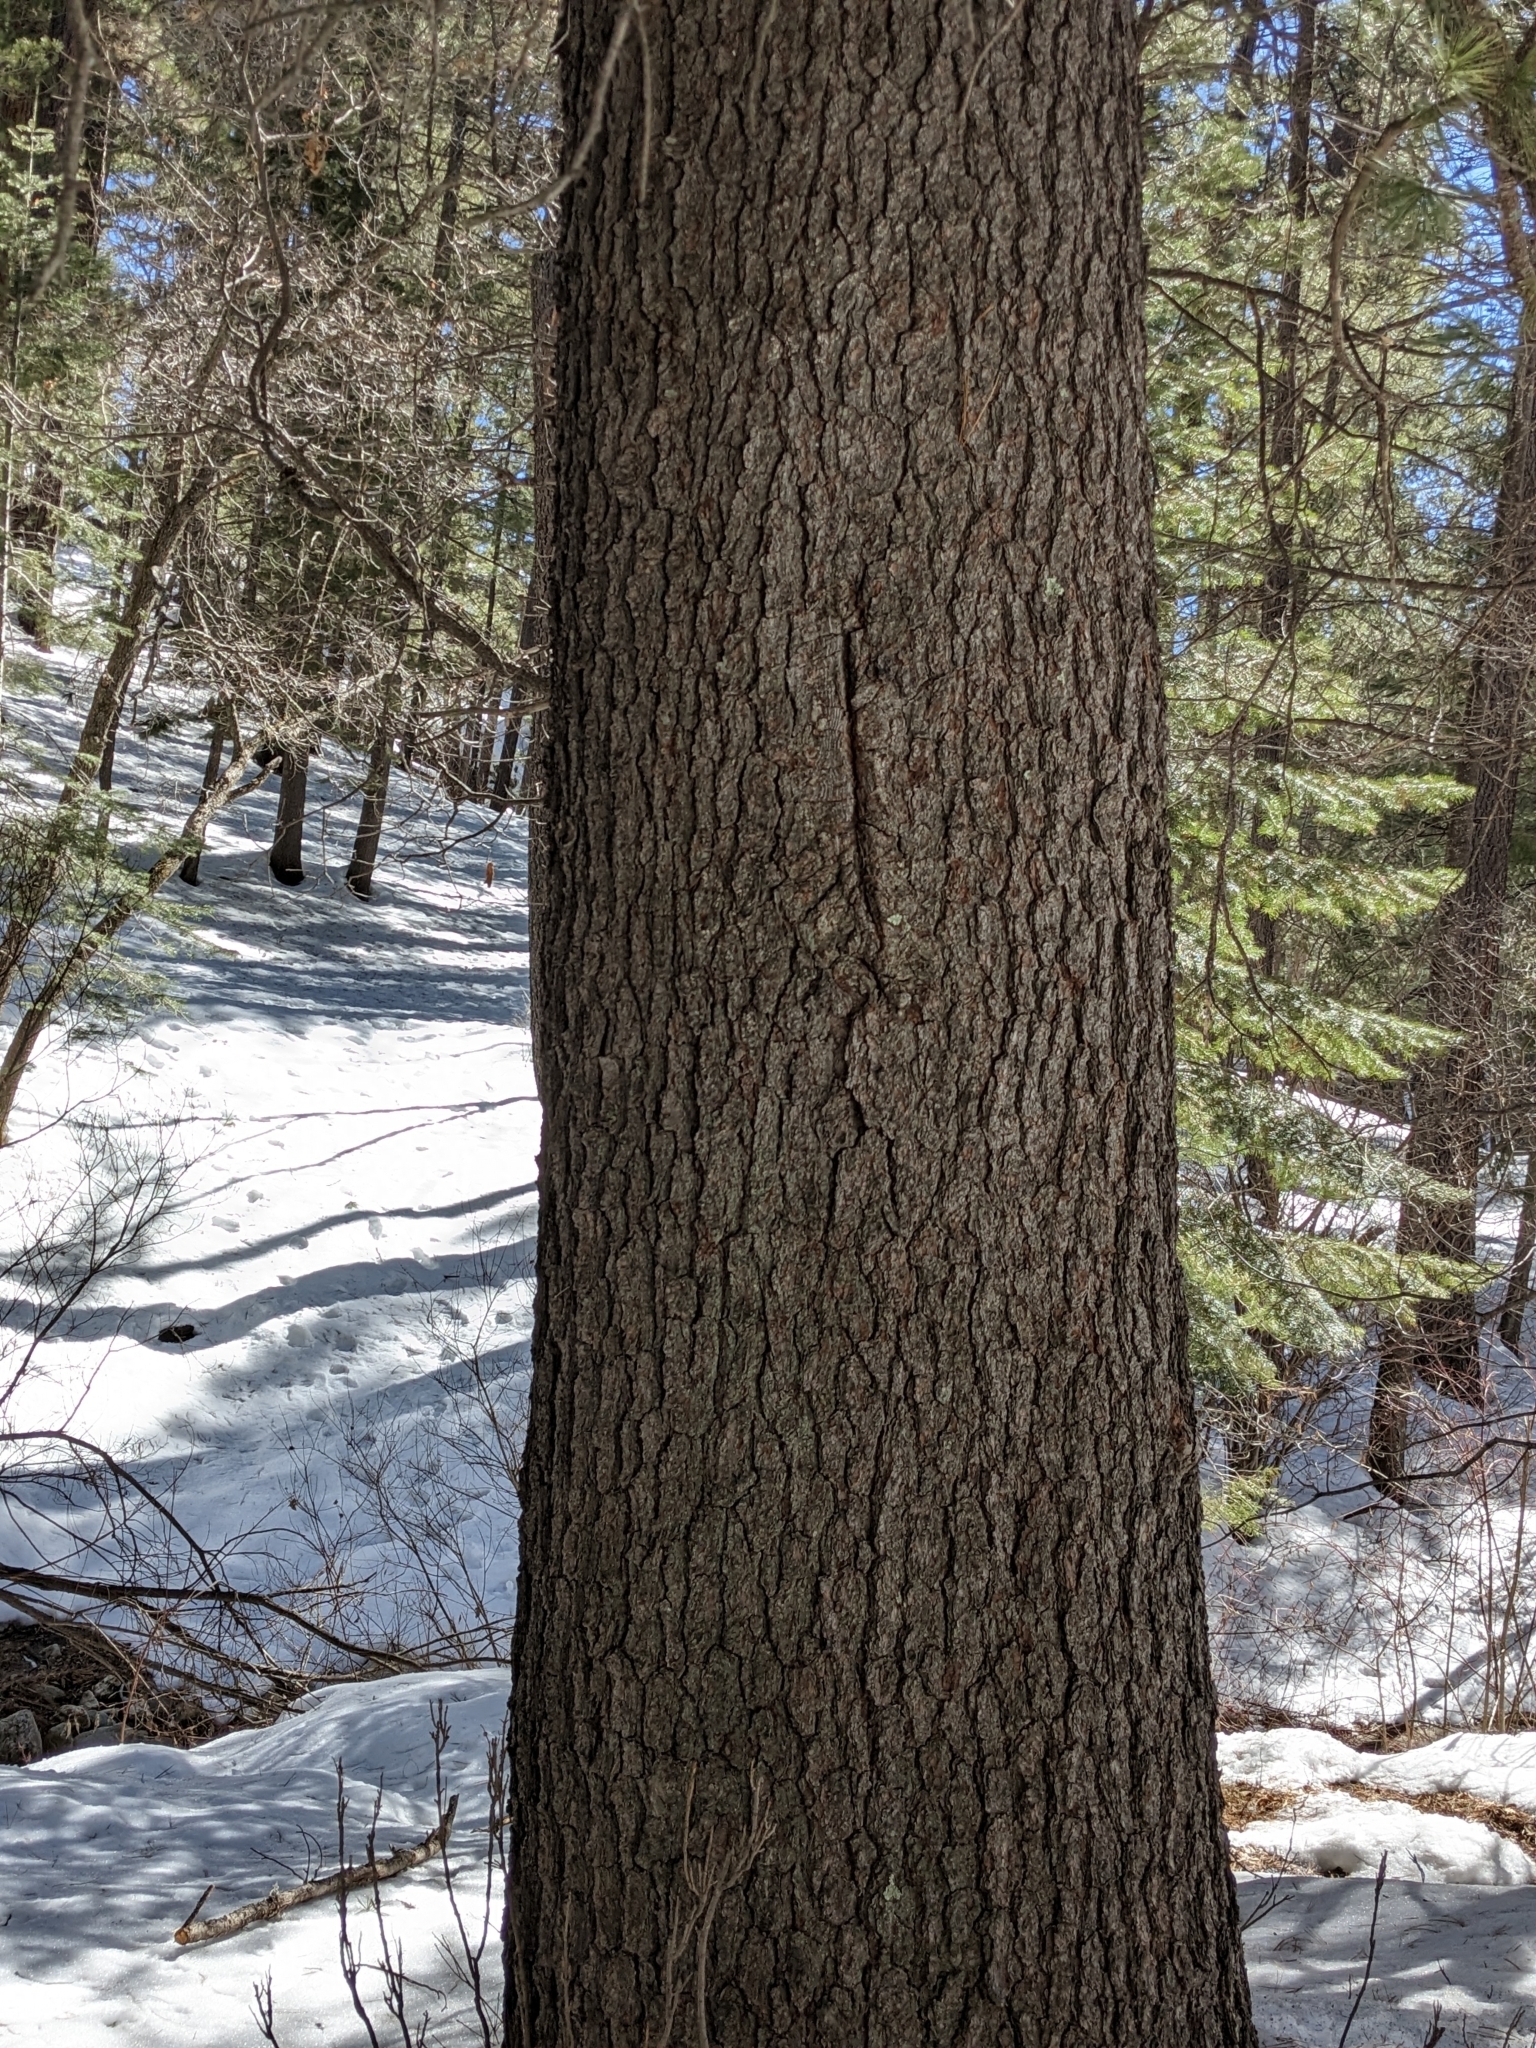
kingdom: Plantae
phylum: Tracheophyta
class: Pinopsida
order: Pinales
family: Pinaceae
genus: Pinus
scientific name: Pinus strobiformis
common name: Southwestern white pine
